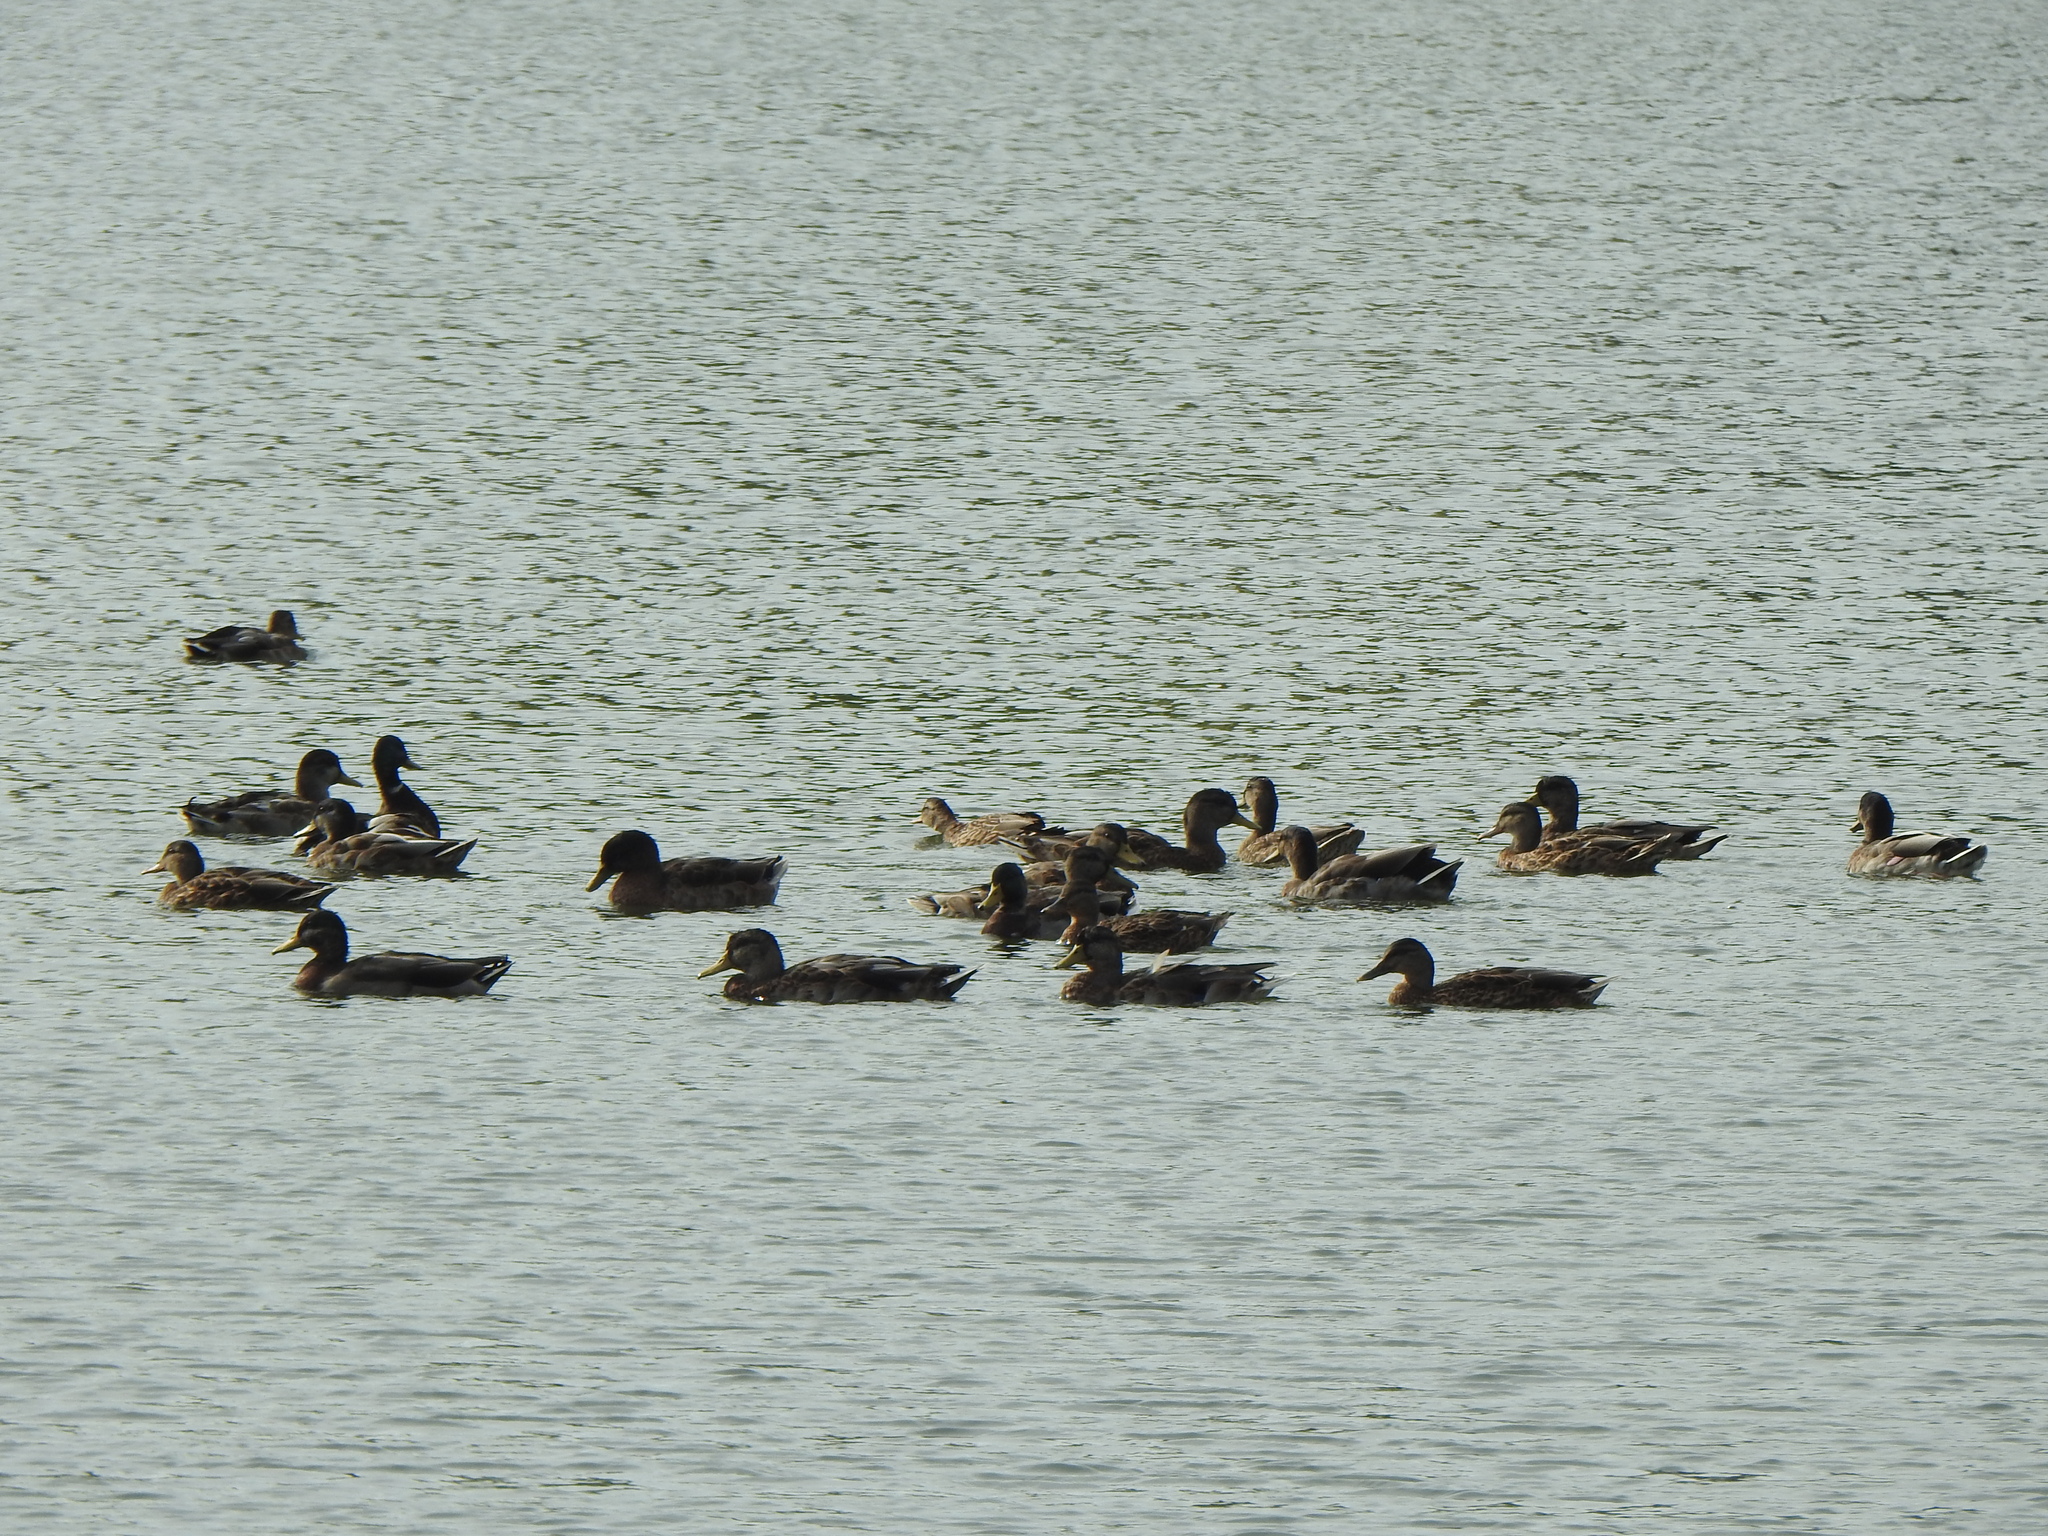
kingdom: Animalia
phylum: Chordata
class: Aves
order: Anseriformes
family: Anatidae
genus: Anas
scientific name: Anas platyrhynchos
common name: Mallard
